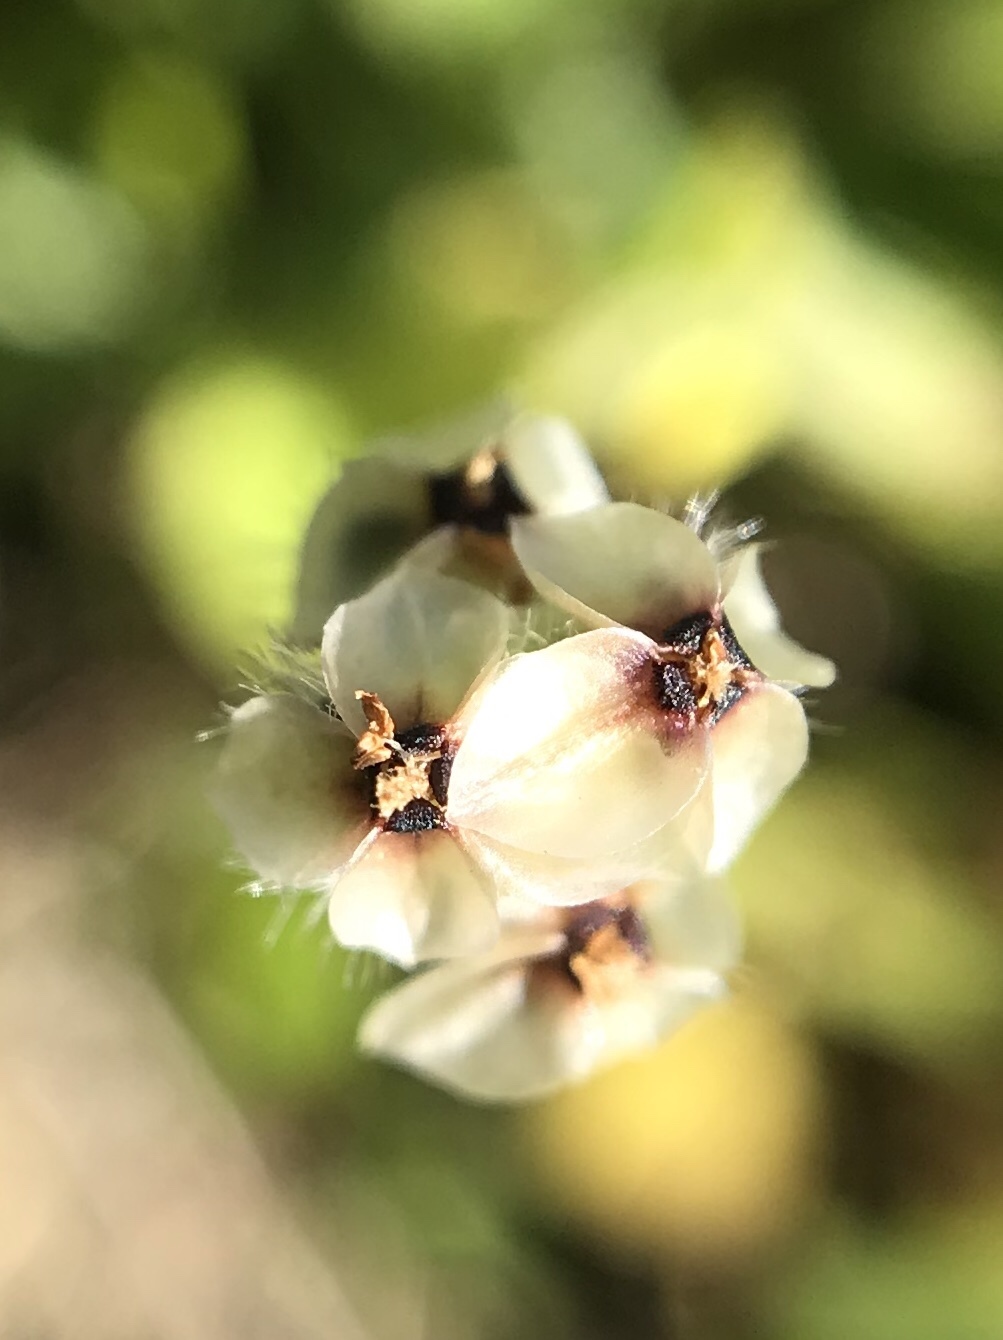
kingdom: Plantae
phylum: Tracheophyta
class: Magnoliopsida
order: Lamiales
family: Plantaginaceae
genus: Plantago
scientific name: Plantago erecta
